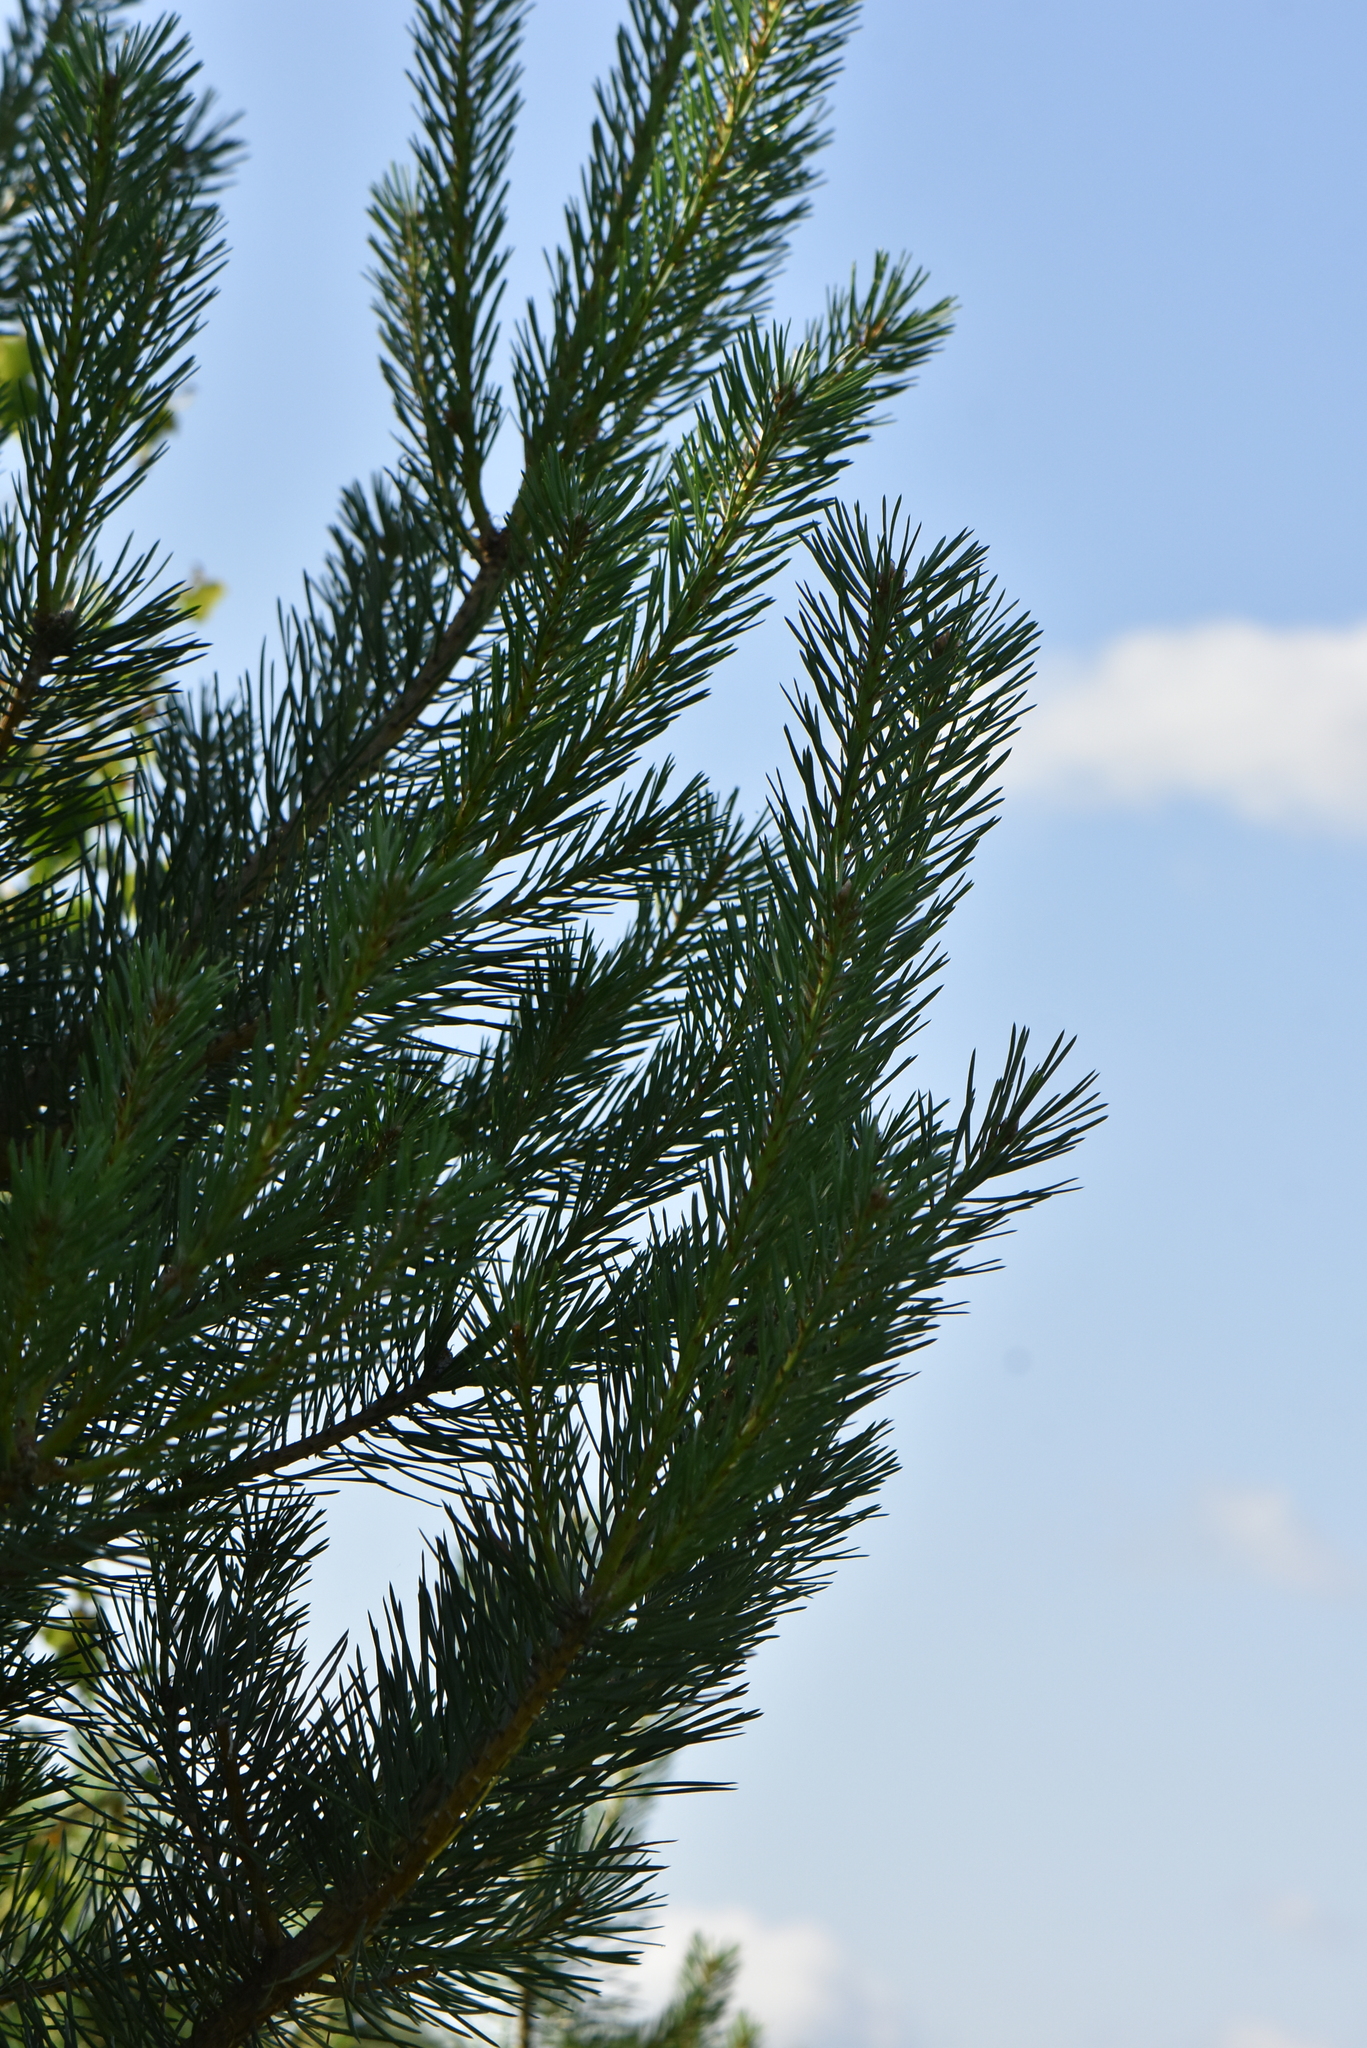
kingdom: Plantae
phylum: Tracheophyta
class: Pinopsida
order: Pinales
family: Pinaceae
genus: Pinus
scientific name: Pinus sylvestris
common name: Scots pine
